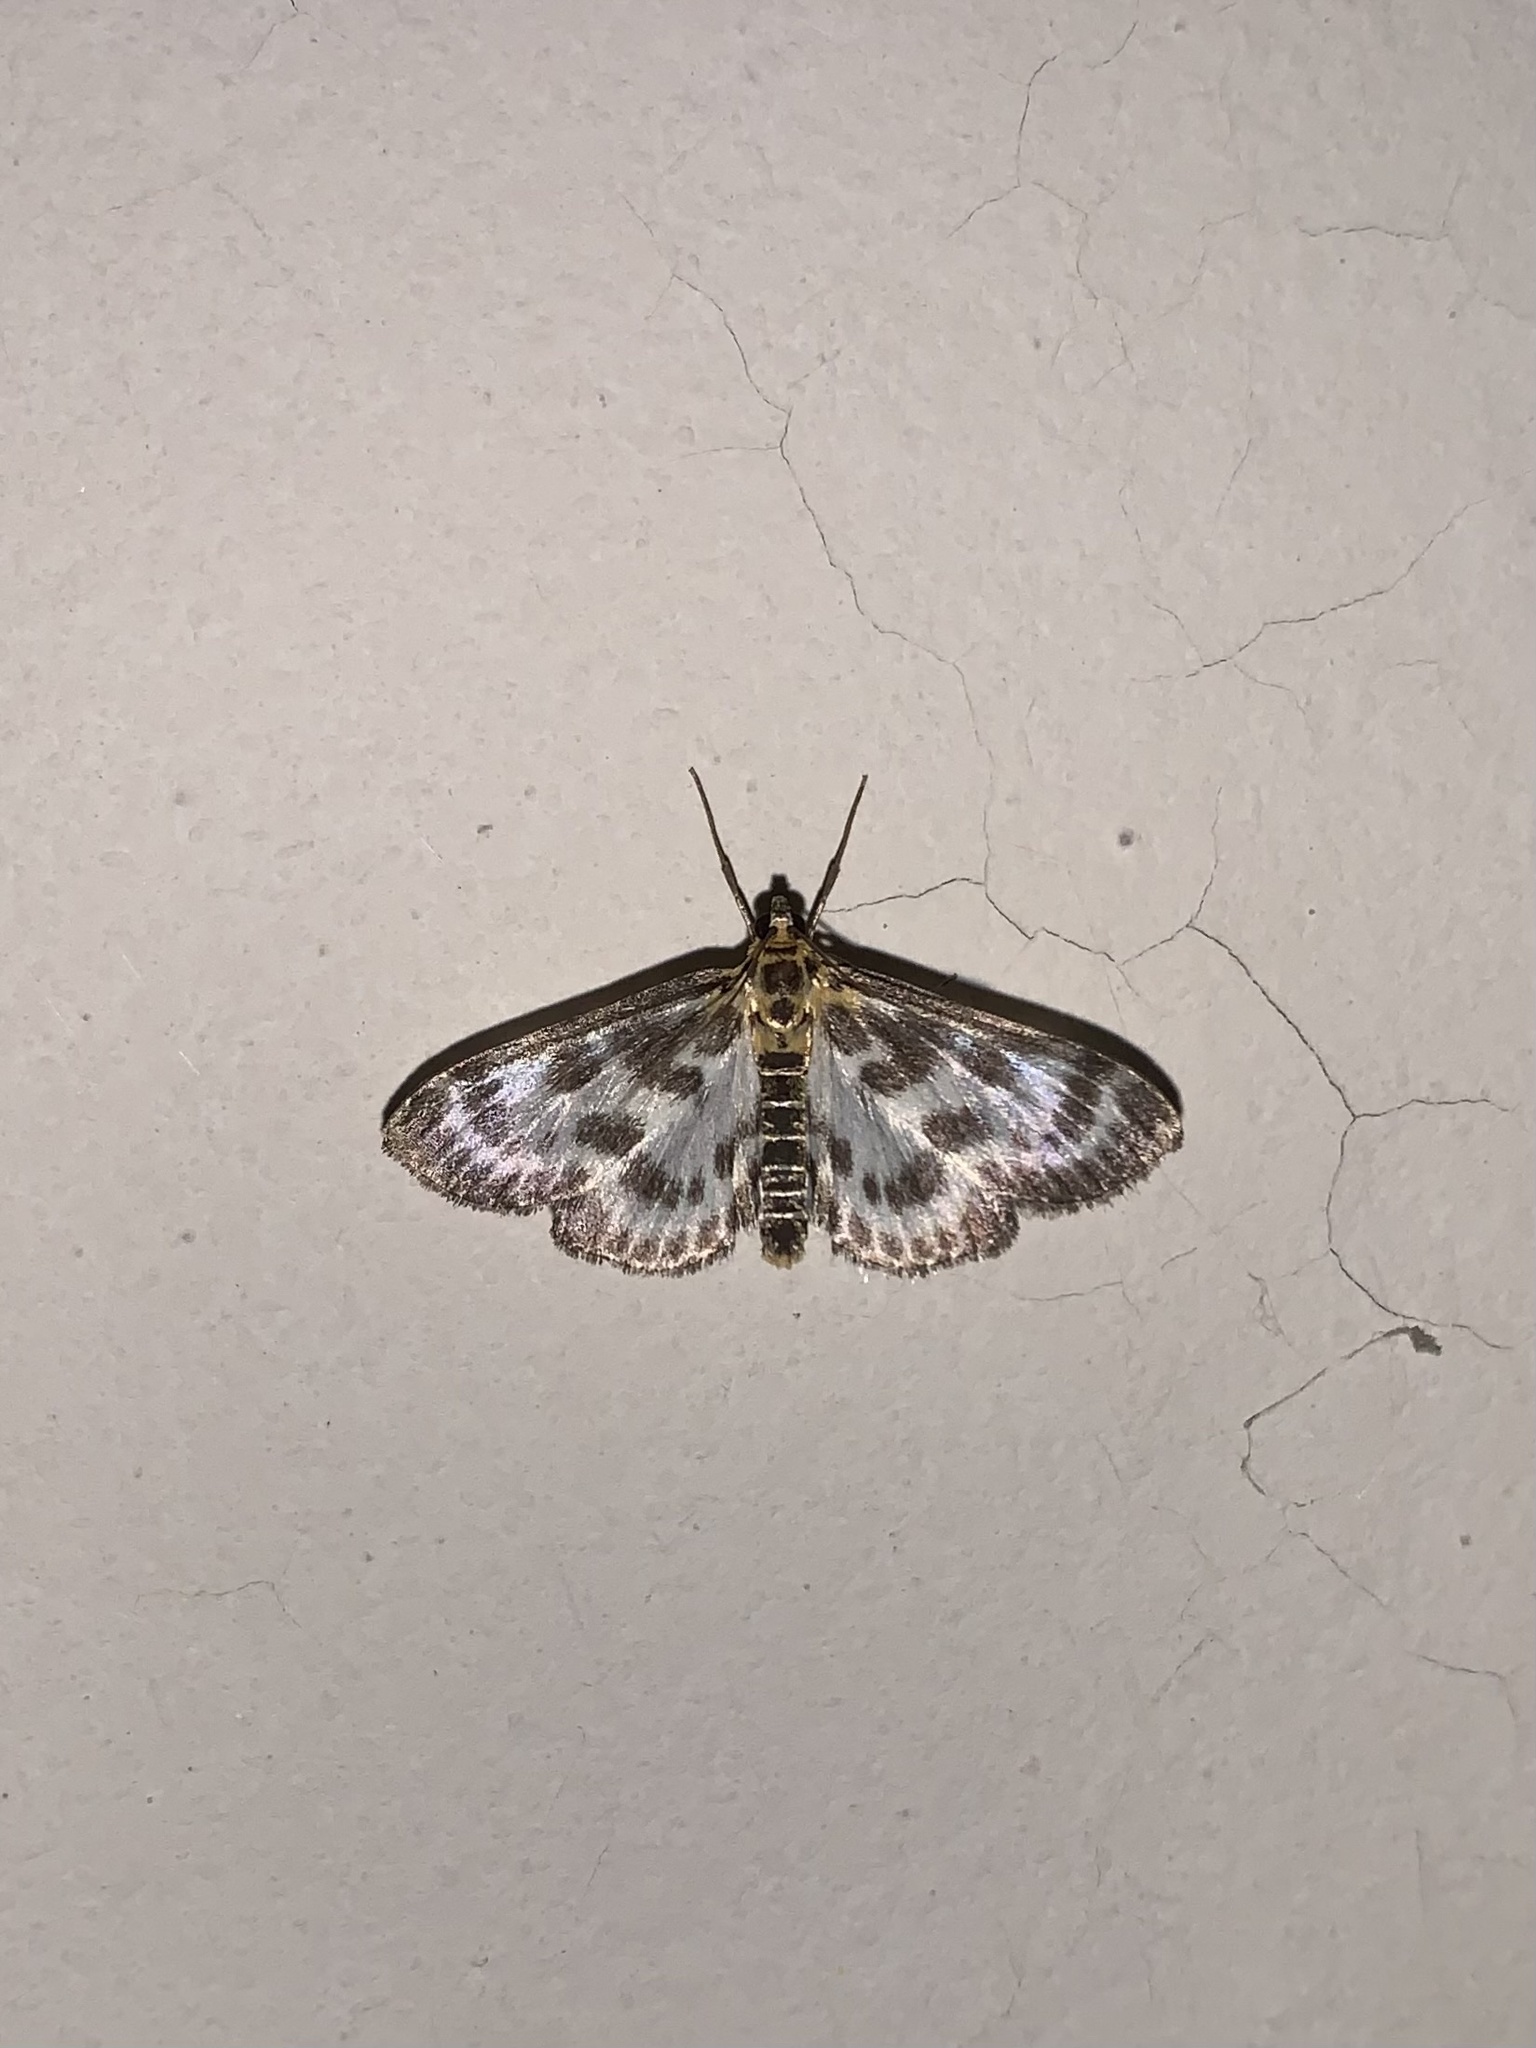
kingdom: Animalia
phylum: Arthropoda
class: Insecta
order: Lepidoptera
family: Crambidae
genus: Anania
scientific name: Anania hortulata
